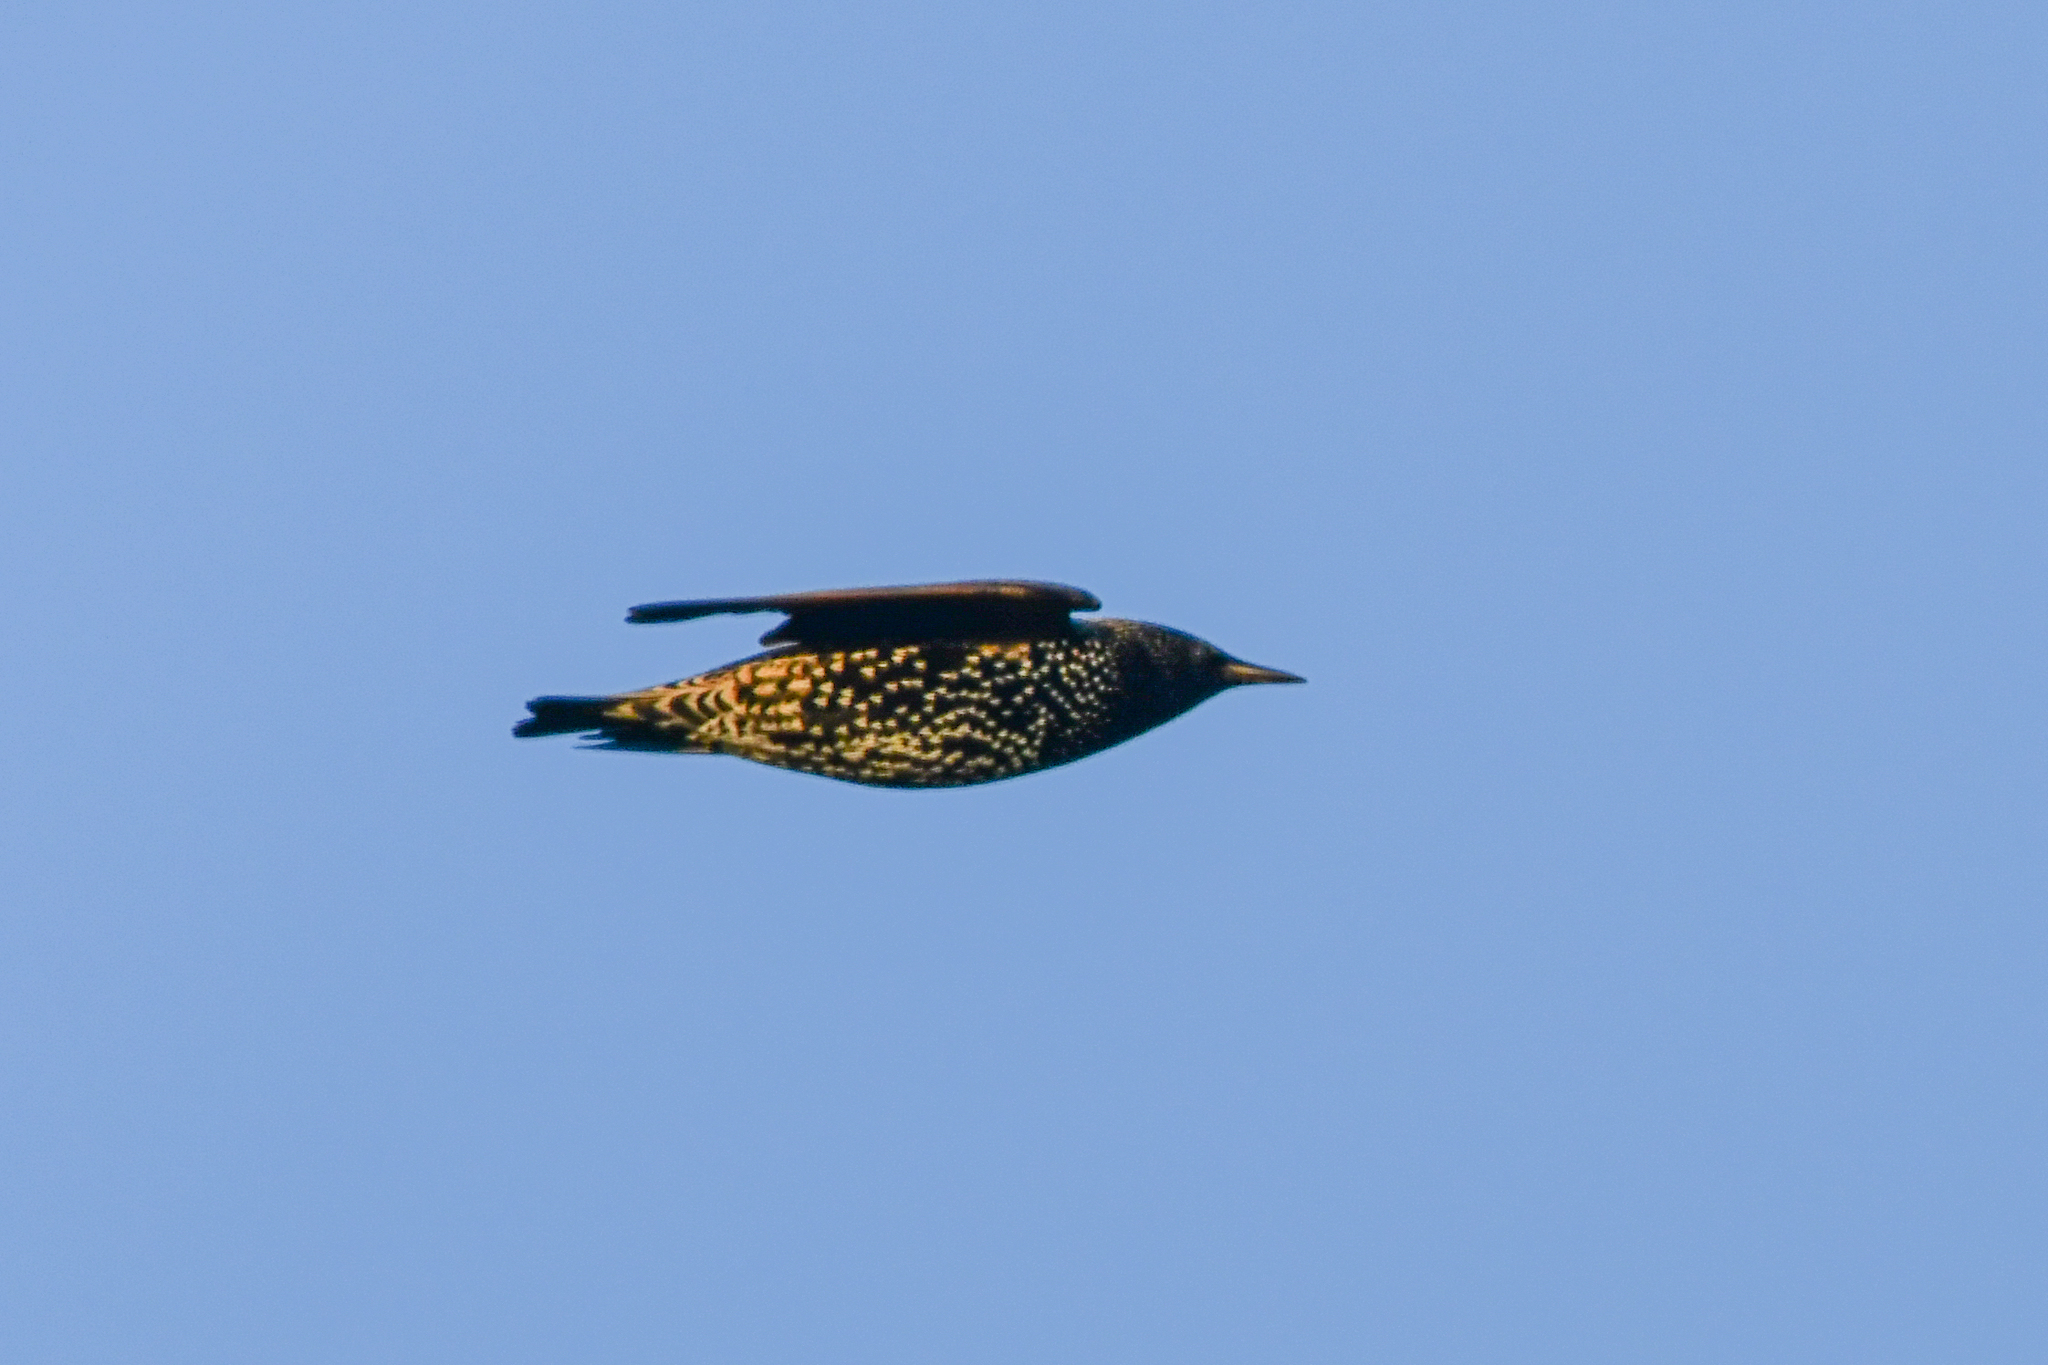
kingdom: Animalia
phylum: Chordata
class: Aves
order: Passeriformes
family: Sturnidae
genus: Sturnus
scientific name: Sturnus vulgaris
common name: Common starling
